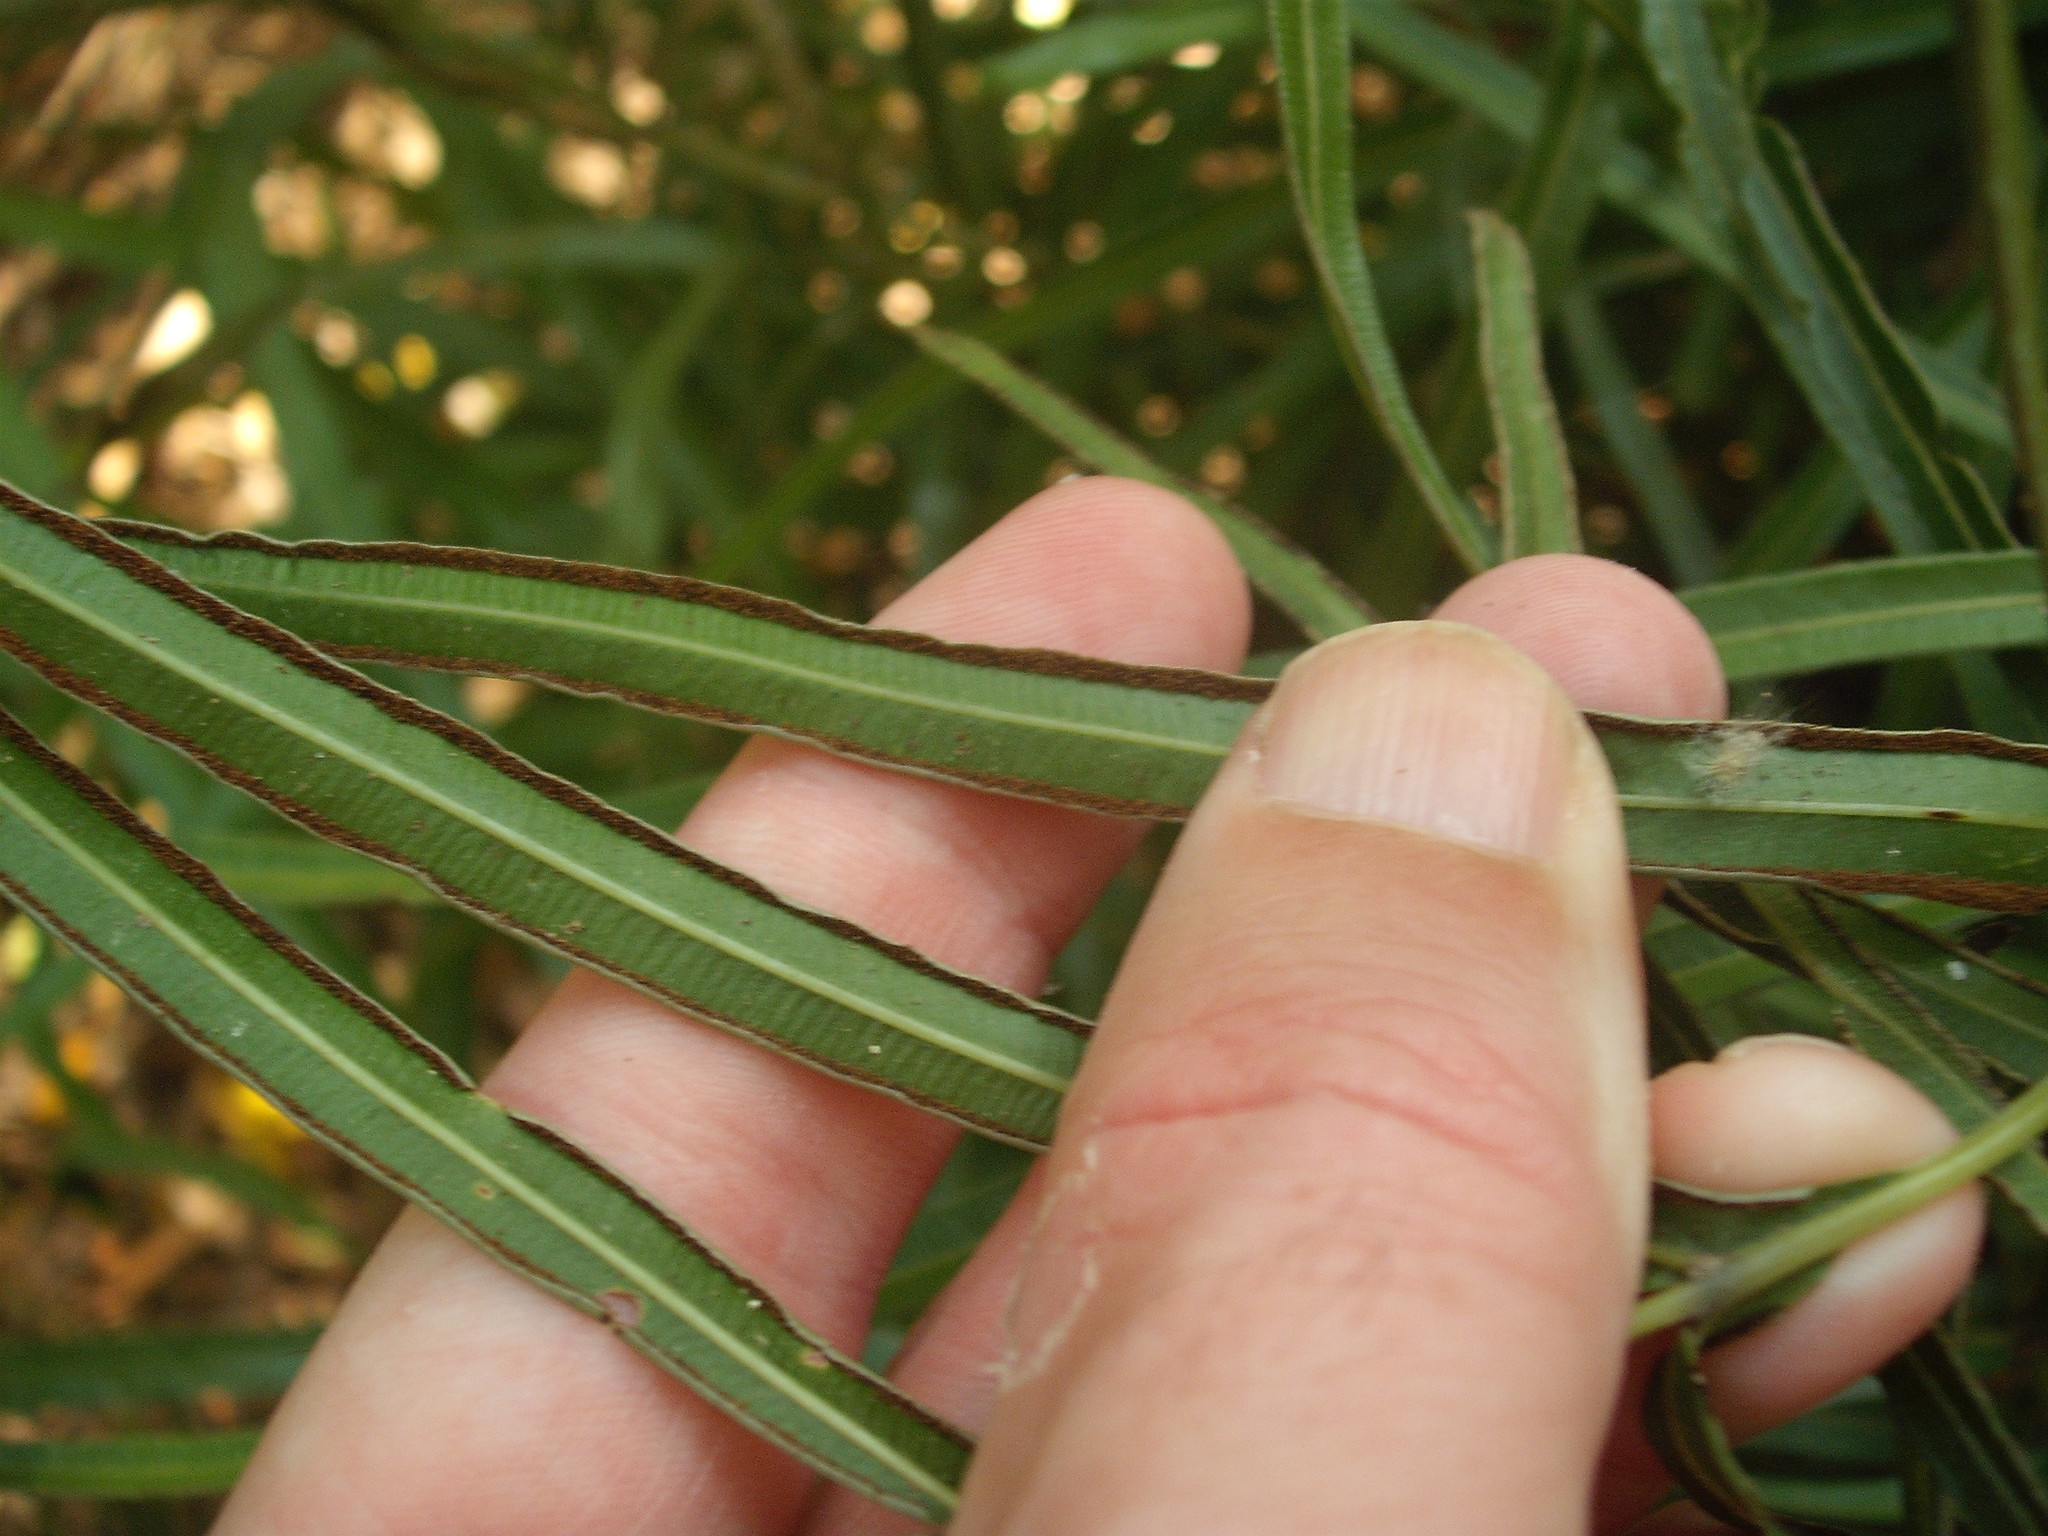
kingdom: Plantae
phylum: Tracheophyta
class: Polypodiopsida
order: Polypodiales
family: Pteridaceae
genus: Pteris
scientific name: Pteris cretica
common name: Ribbon fern
